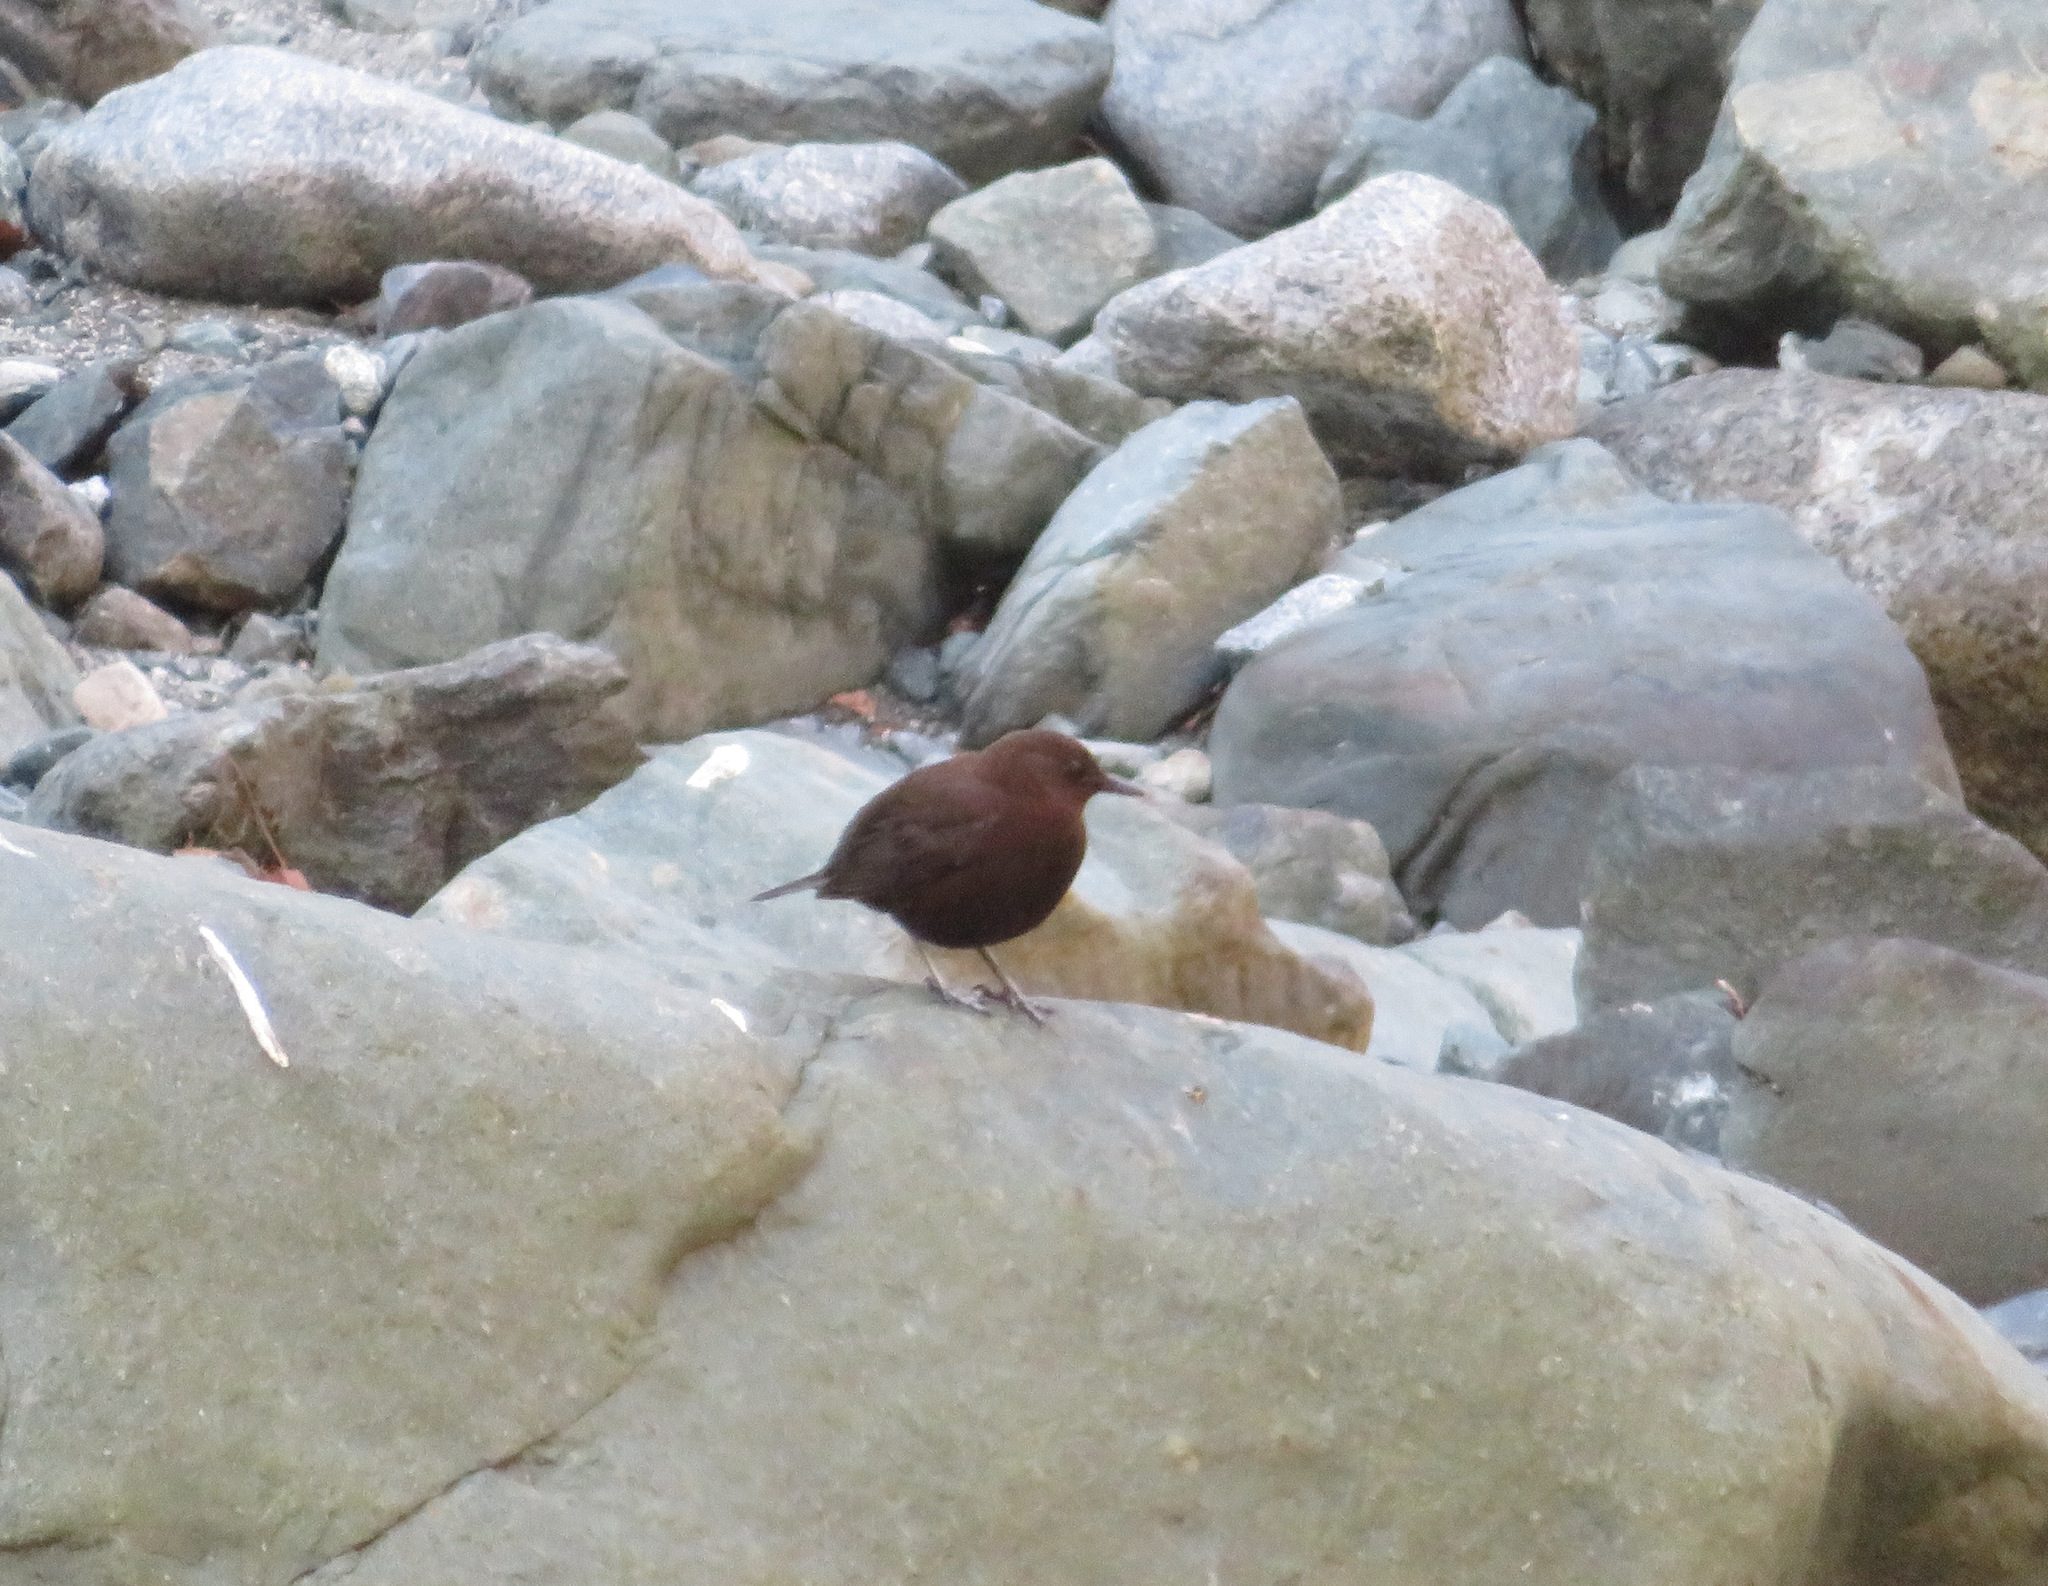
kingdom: Animalia
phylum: Chordata
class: Aves
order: Passeriformes
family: Cinclidae
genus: Cinclus
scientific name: Cinclus pallasii
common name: Brown dipper
